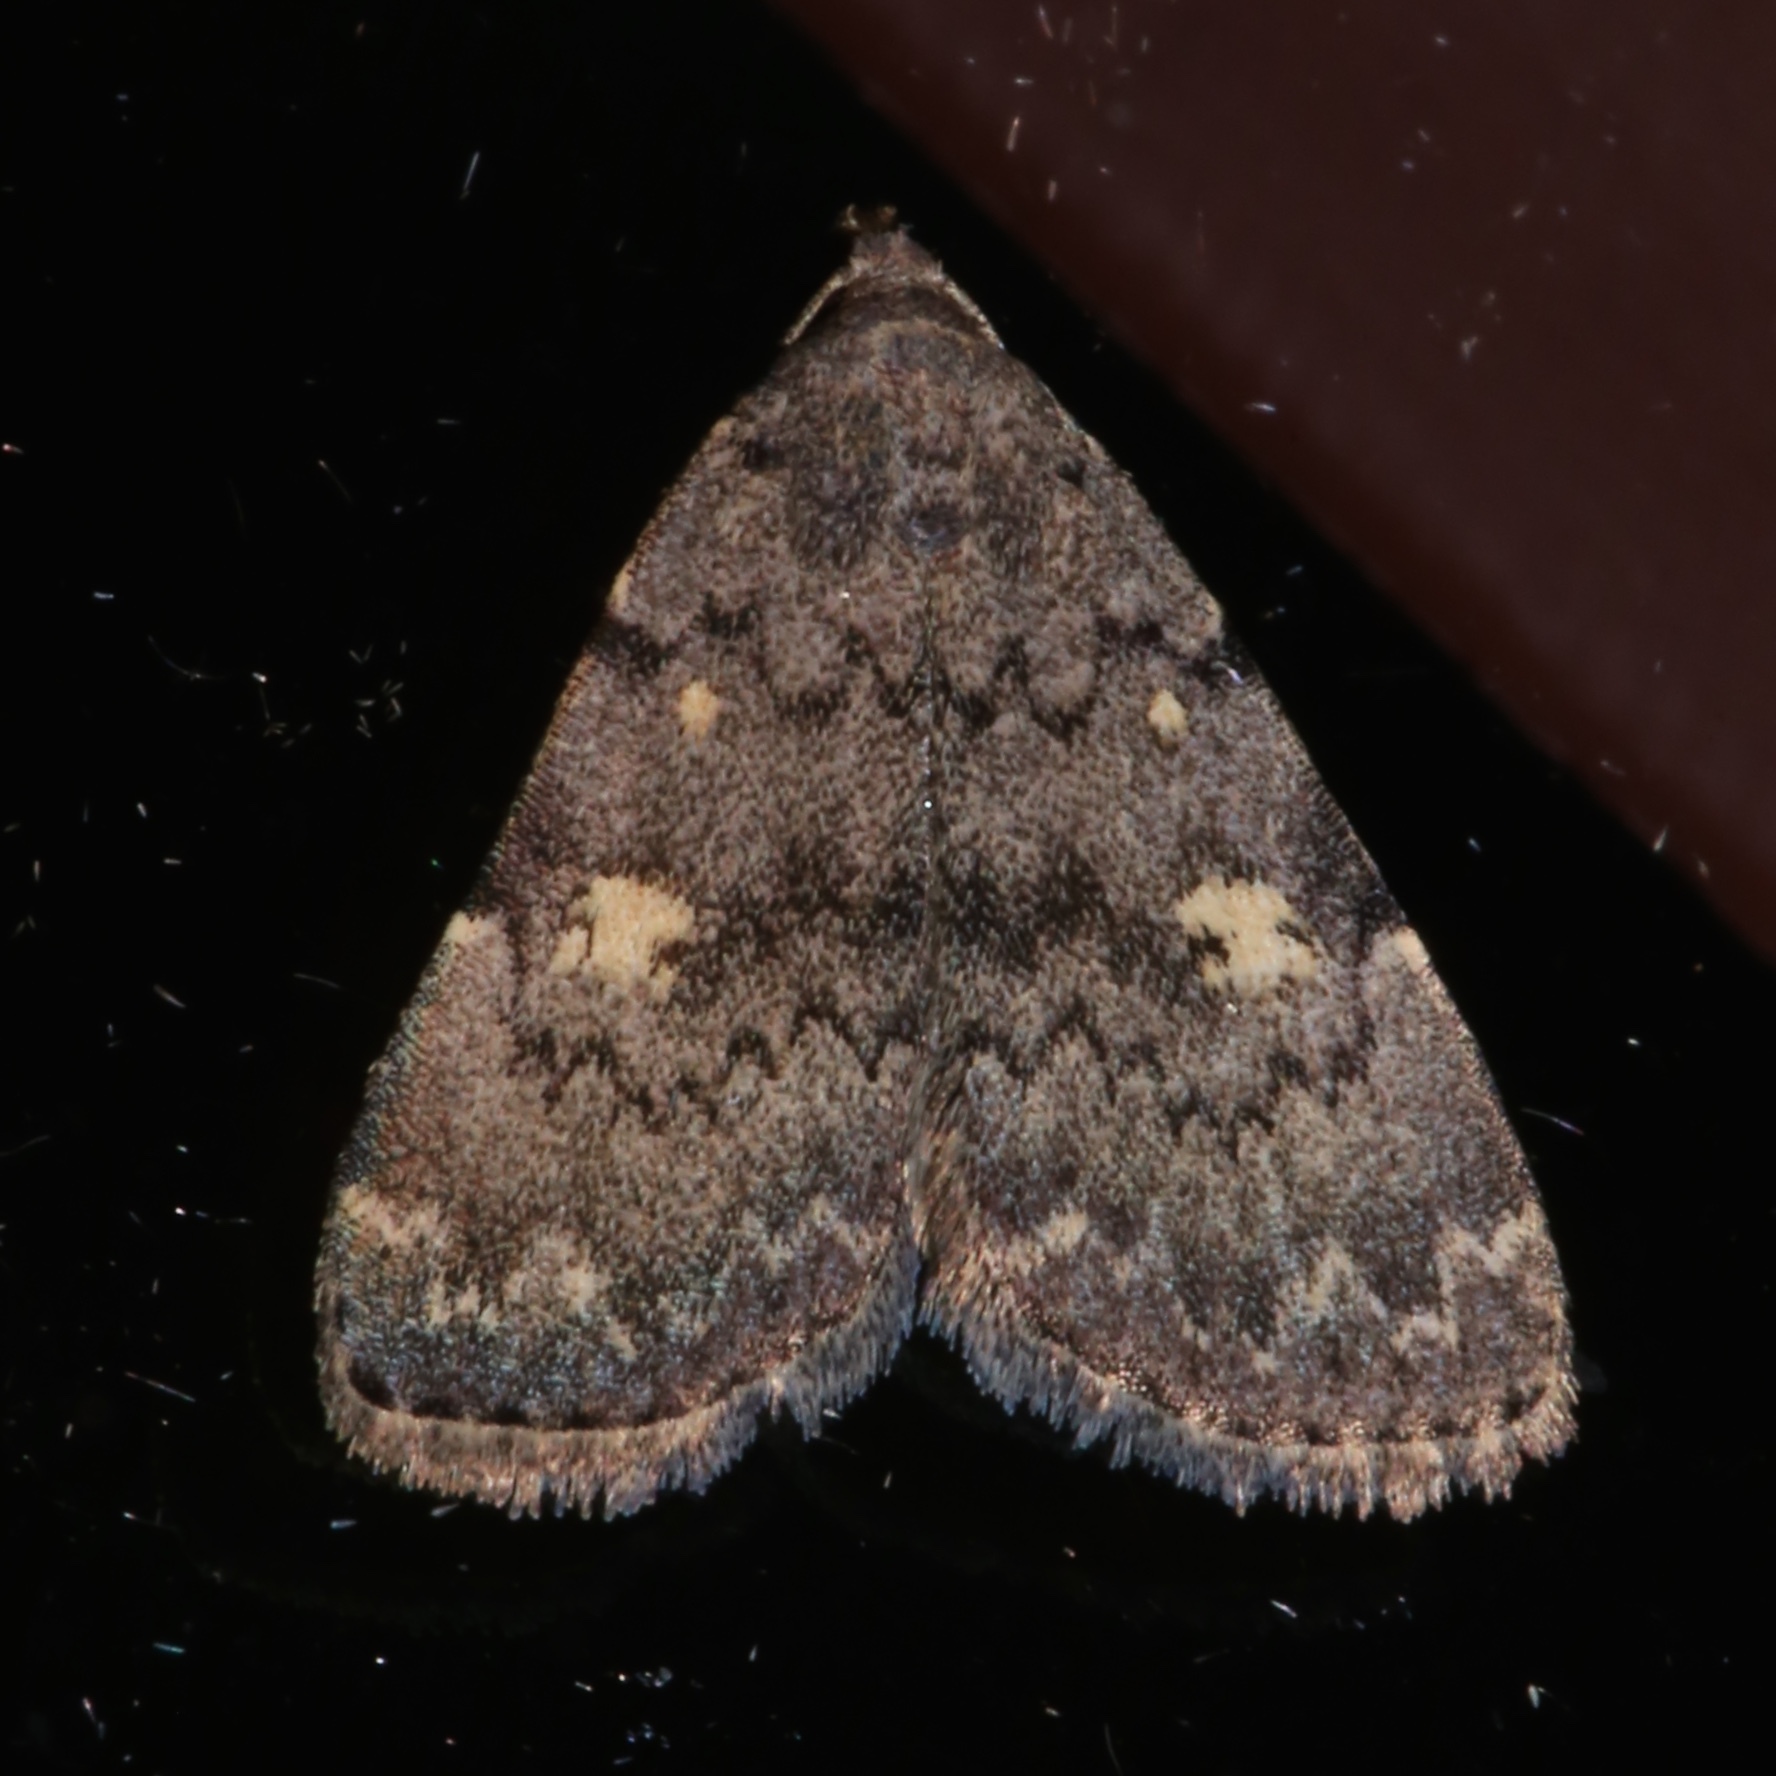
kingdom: Animalia
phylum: Arthropoda
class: Insecta
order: Lepidoptera
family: Erebidae
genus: Idia
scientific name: Idia aemula
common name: Common idia moth
